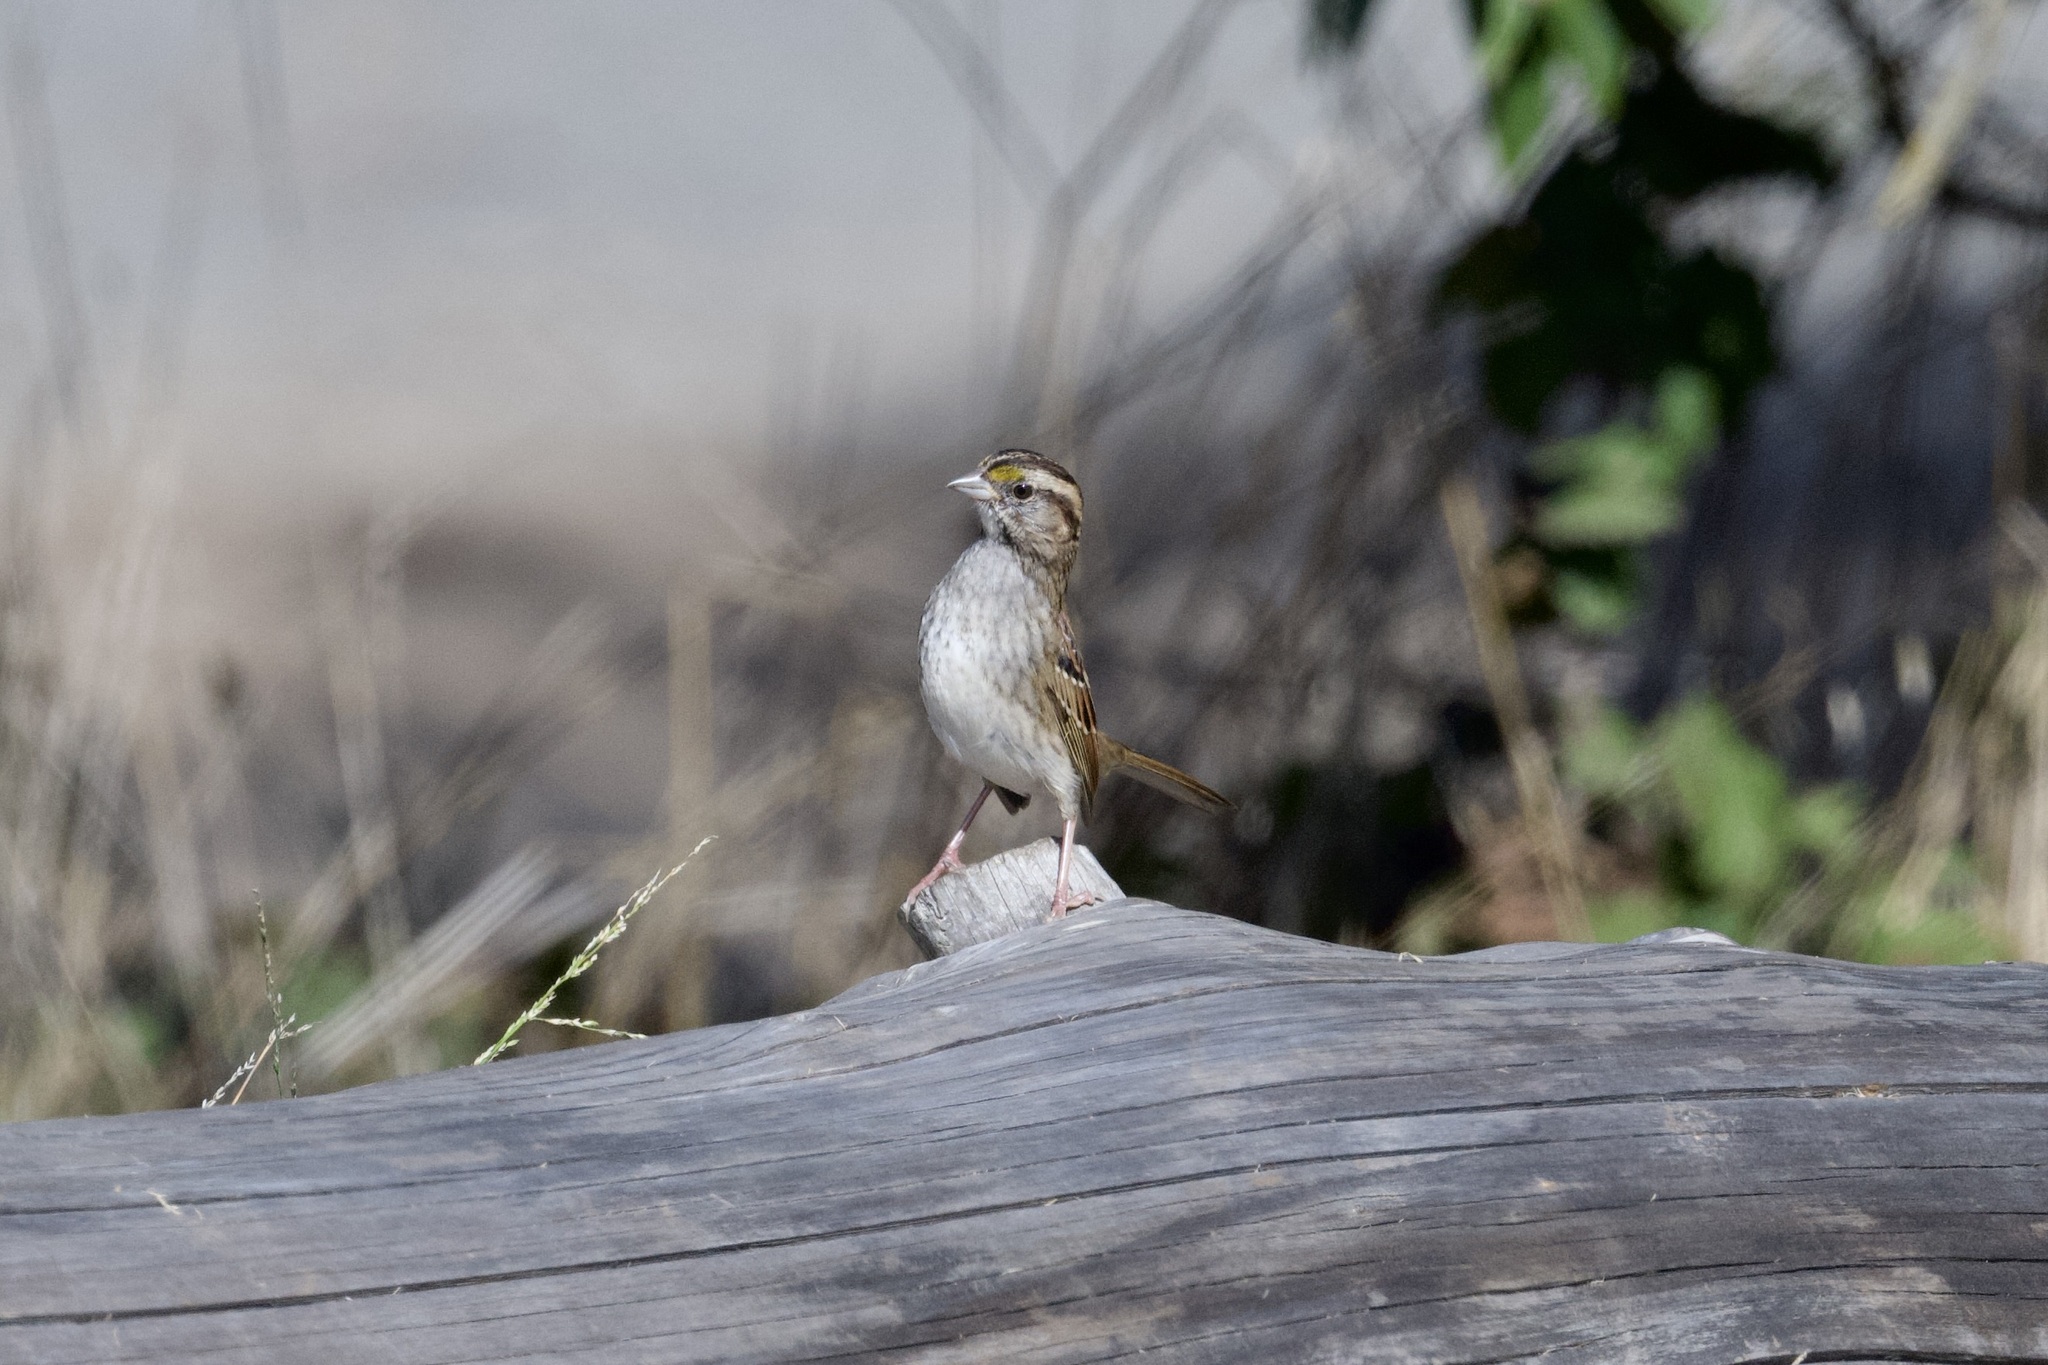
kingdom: Animalia
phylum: Chordata
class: Aves
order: Passeriformes
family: Passerellidae
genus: Zonotrichia
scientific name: Zonotrichia albicollis
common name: White-throated sparrow
